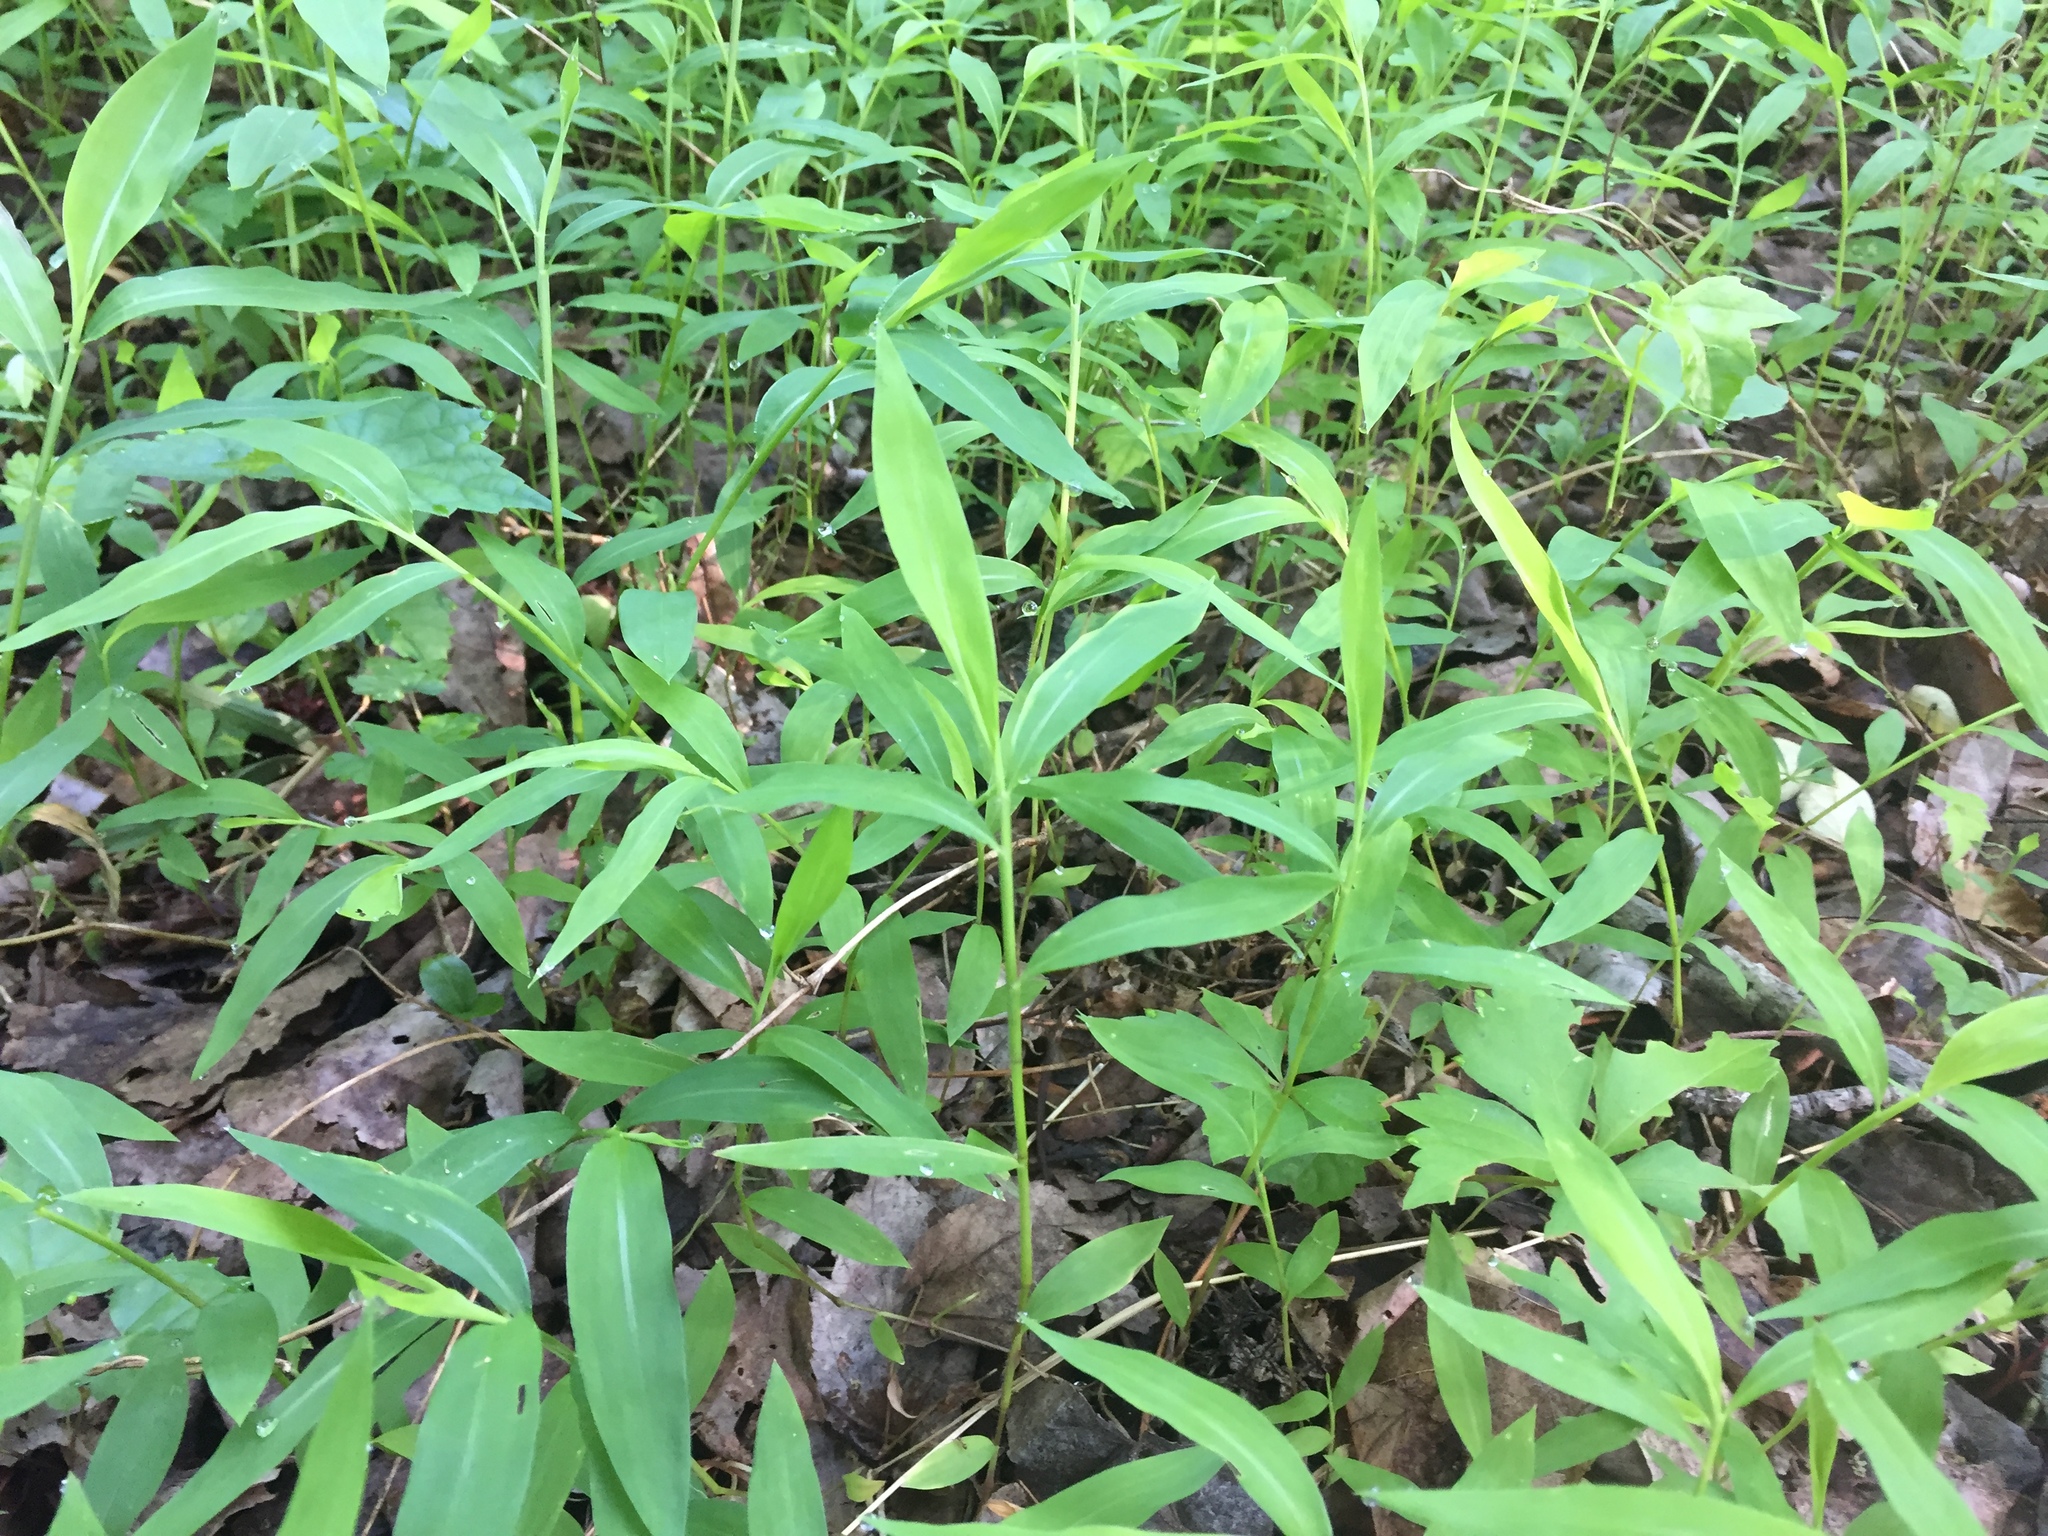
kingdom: Plantae
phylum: Tracheophyta
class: Liliopsida
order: Poales
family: Poaceae
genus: Microstegium
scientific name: Microstegium vimineum
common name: Japanese stiltgrass
